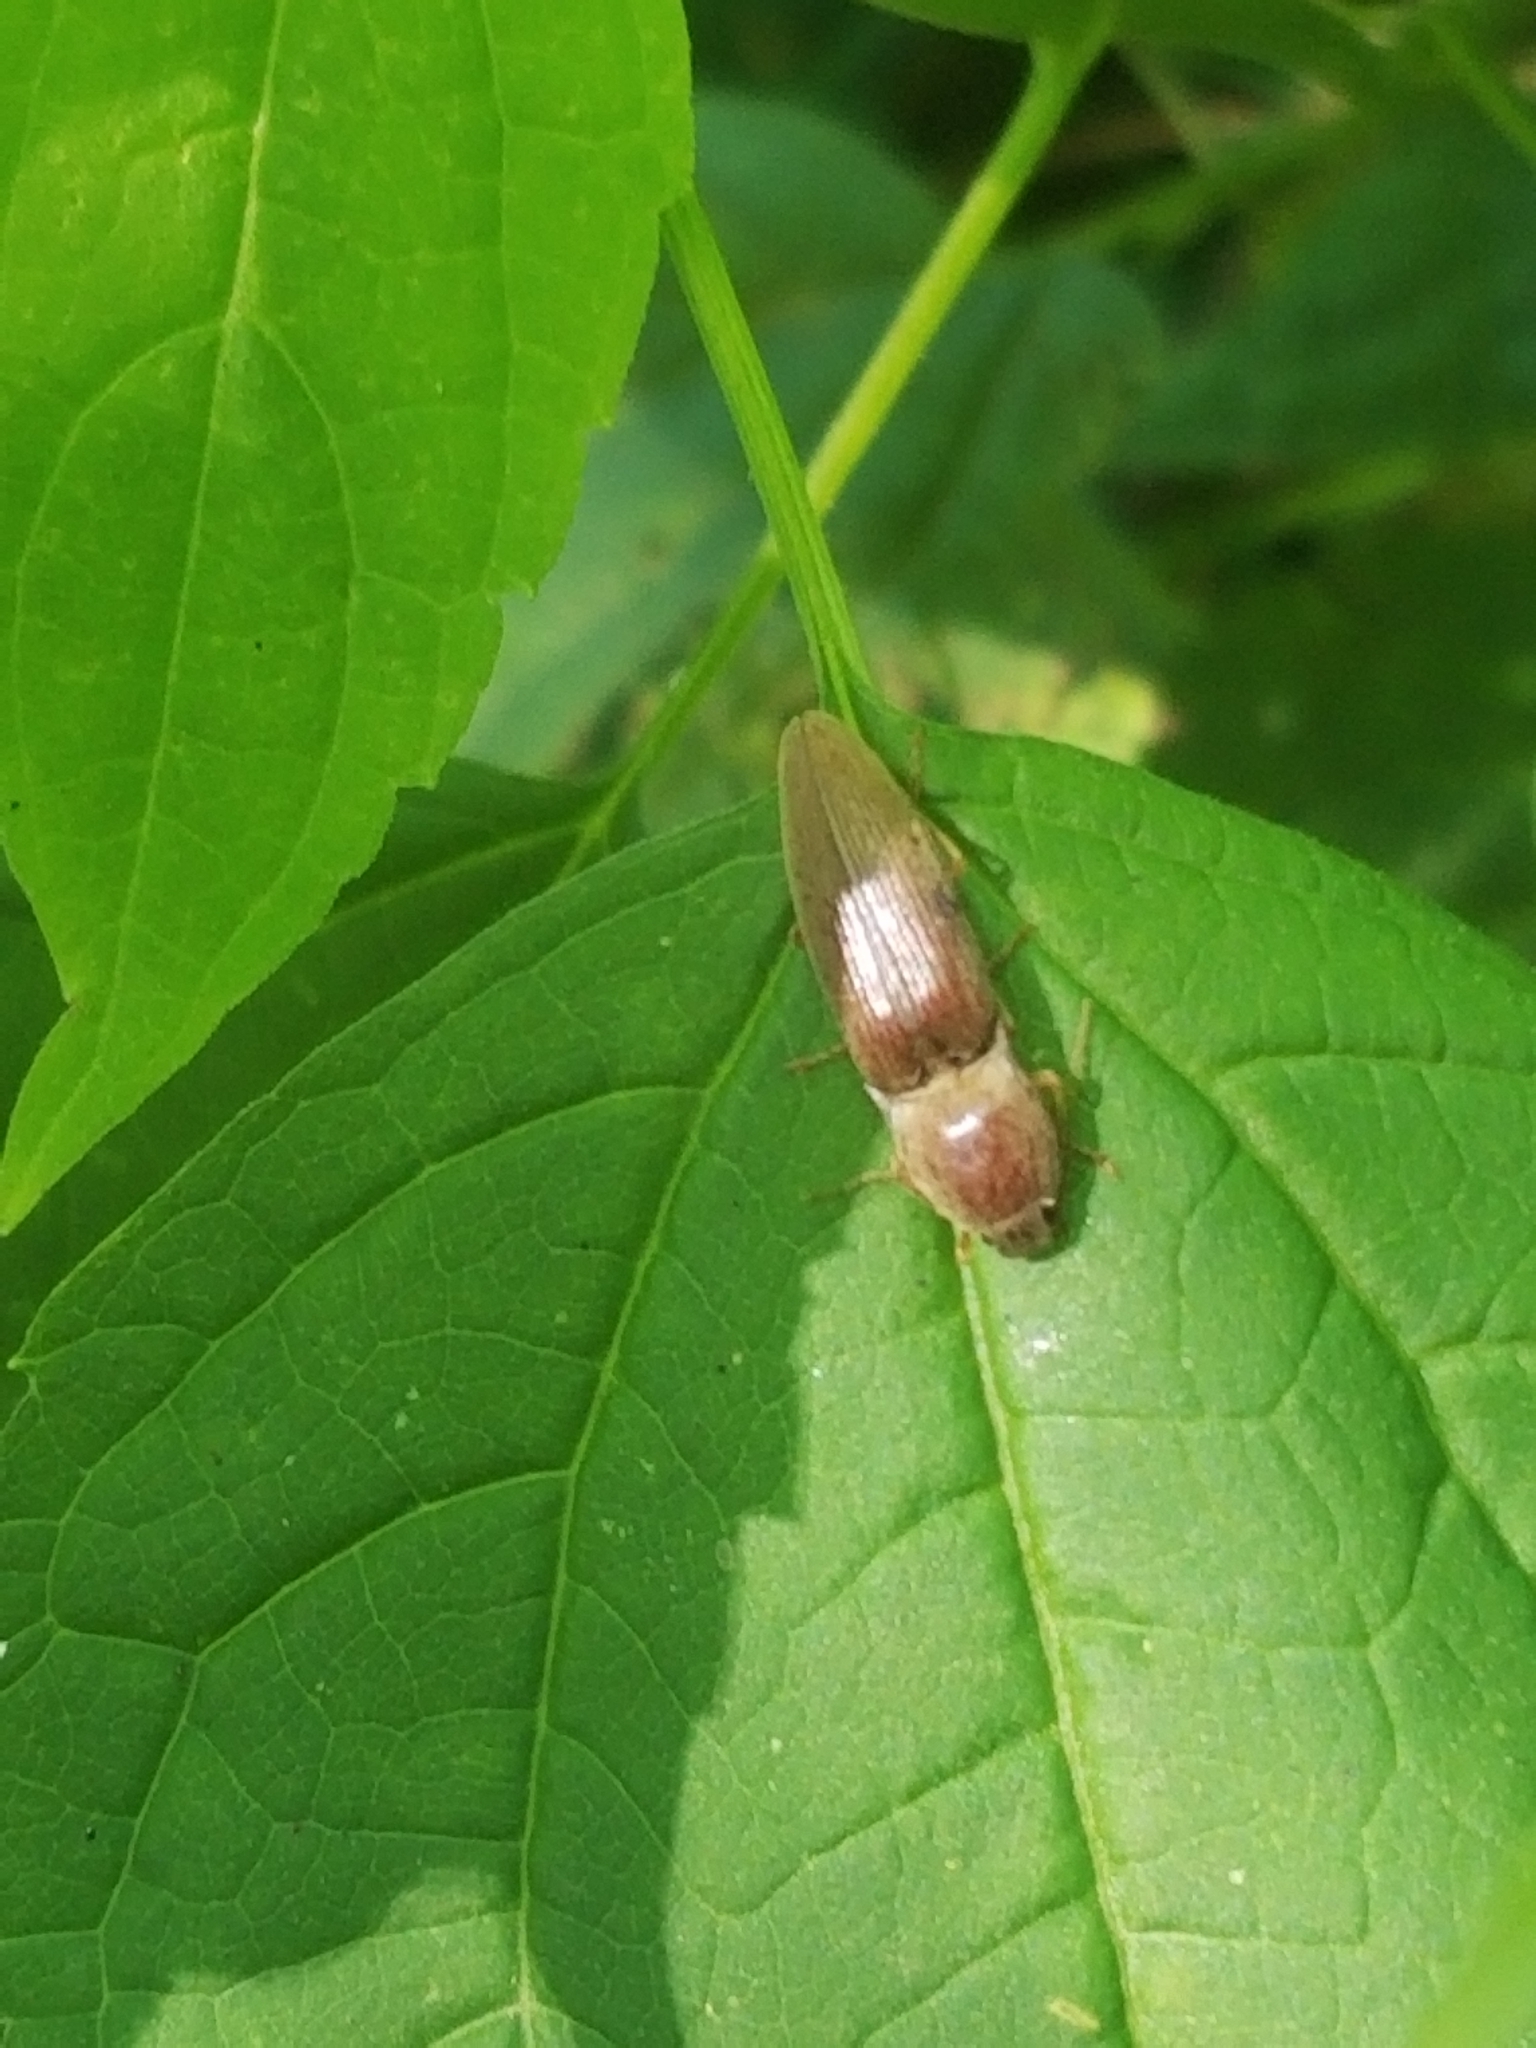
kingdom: Animalia
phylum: Arthropoda
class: Insecta
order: Coleoptera
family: Elateridae
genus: Monocrepidius
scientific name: Monocrepidius lividus
